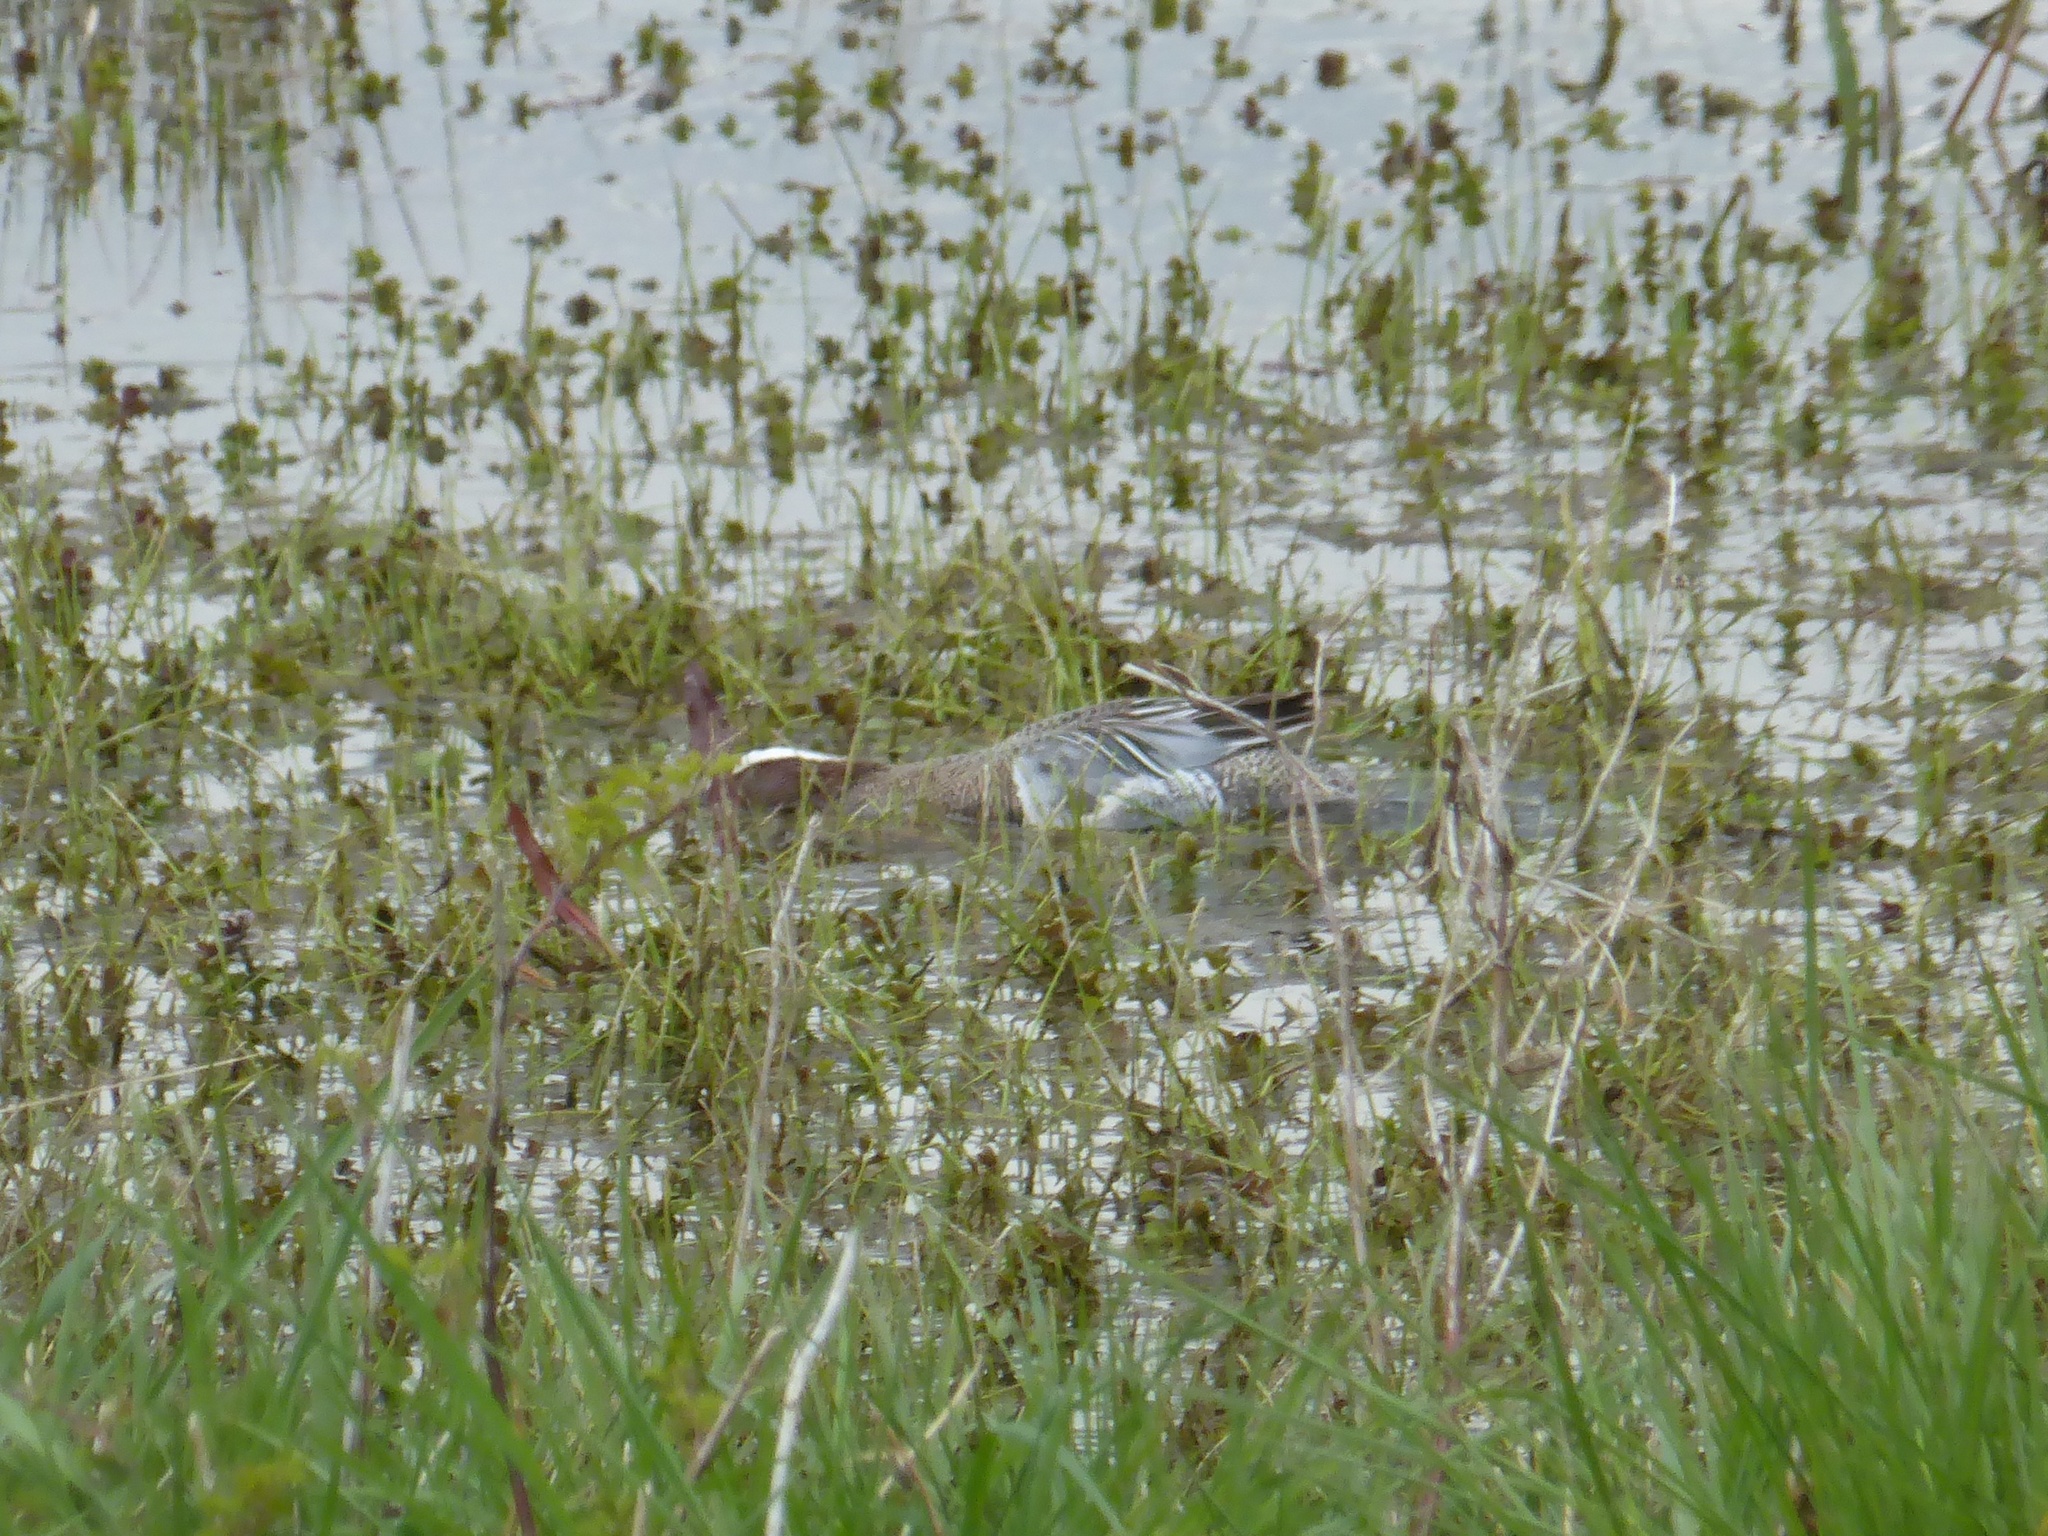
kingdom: Animalia
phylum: Chordata
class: Aves
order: Anseriformes
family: Anatidae
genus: Spatula
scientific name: Spatula querquedula
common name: Garganey
